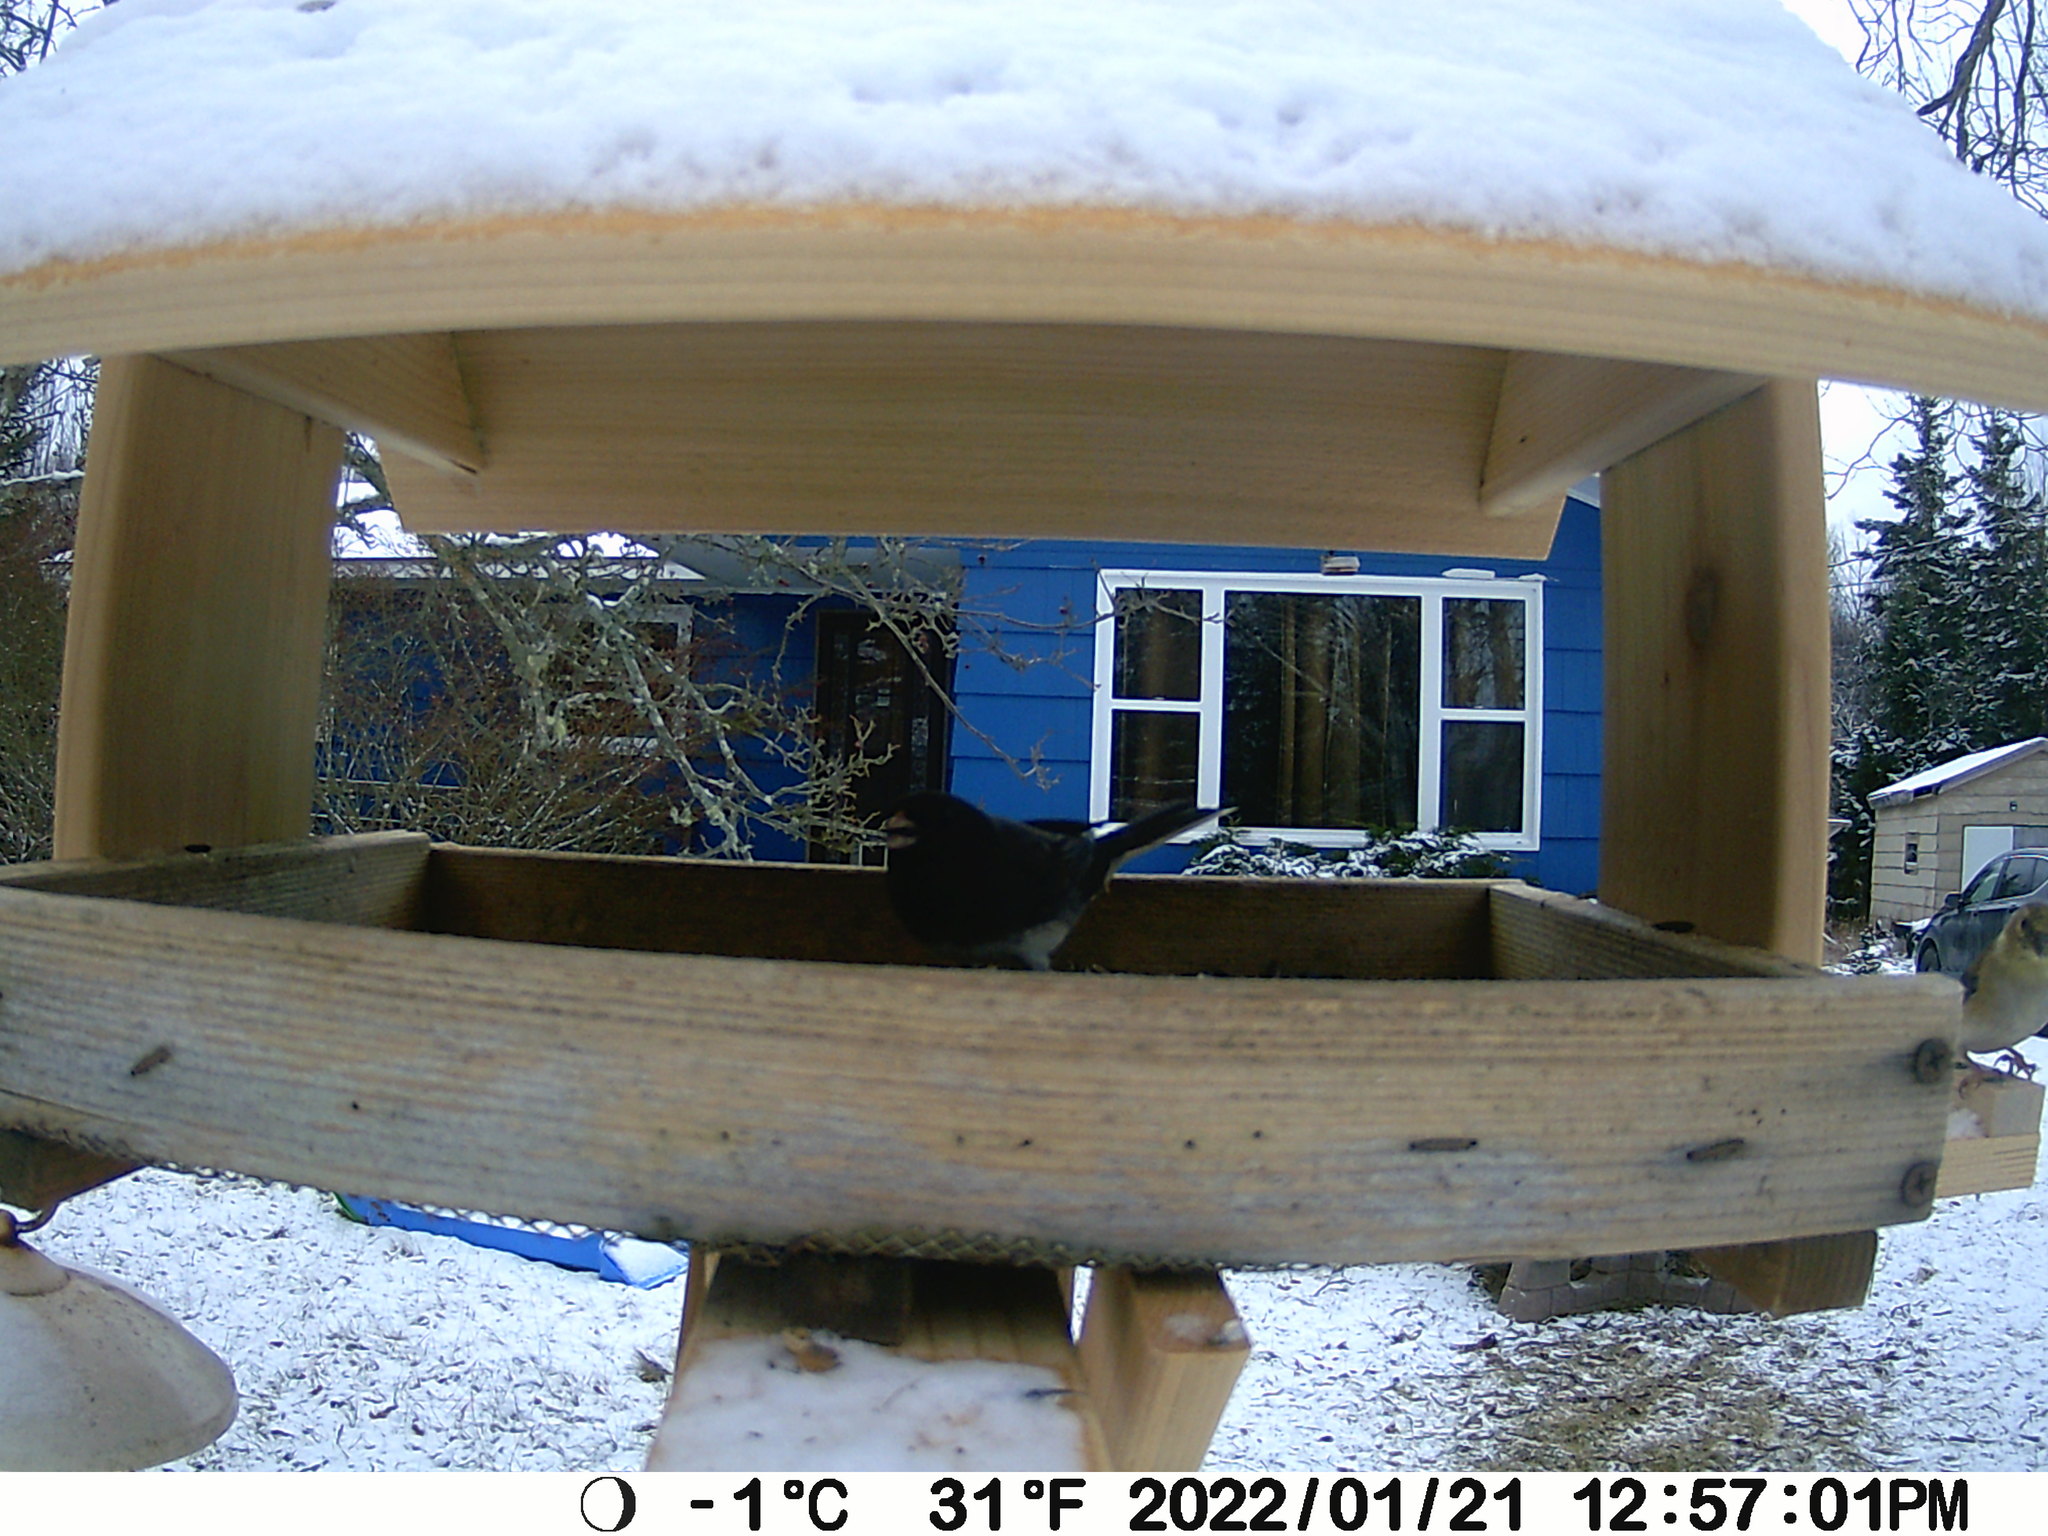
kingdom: Animalia
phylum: Chordata
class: Aves
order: Passeriformes
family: Passerellidae
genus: Junco
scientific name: Junco hyemalis
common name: Dark-eyed junco
